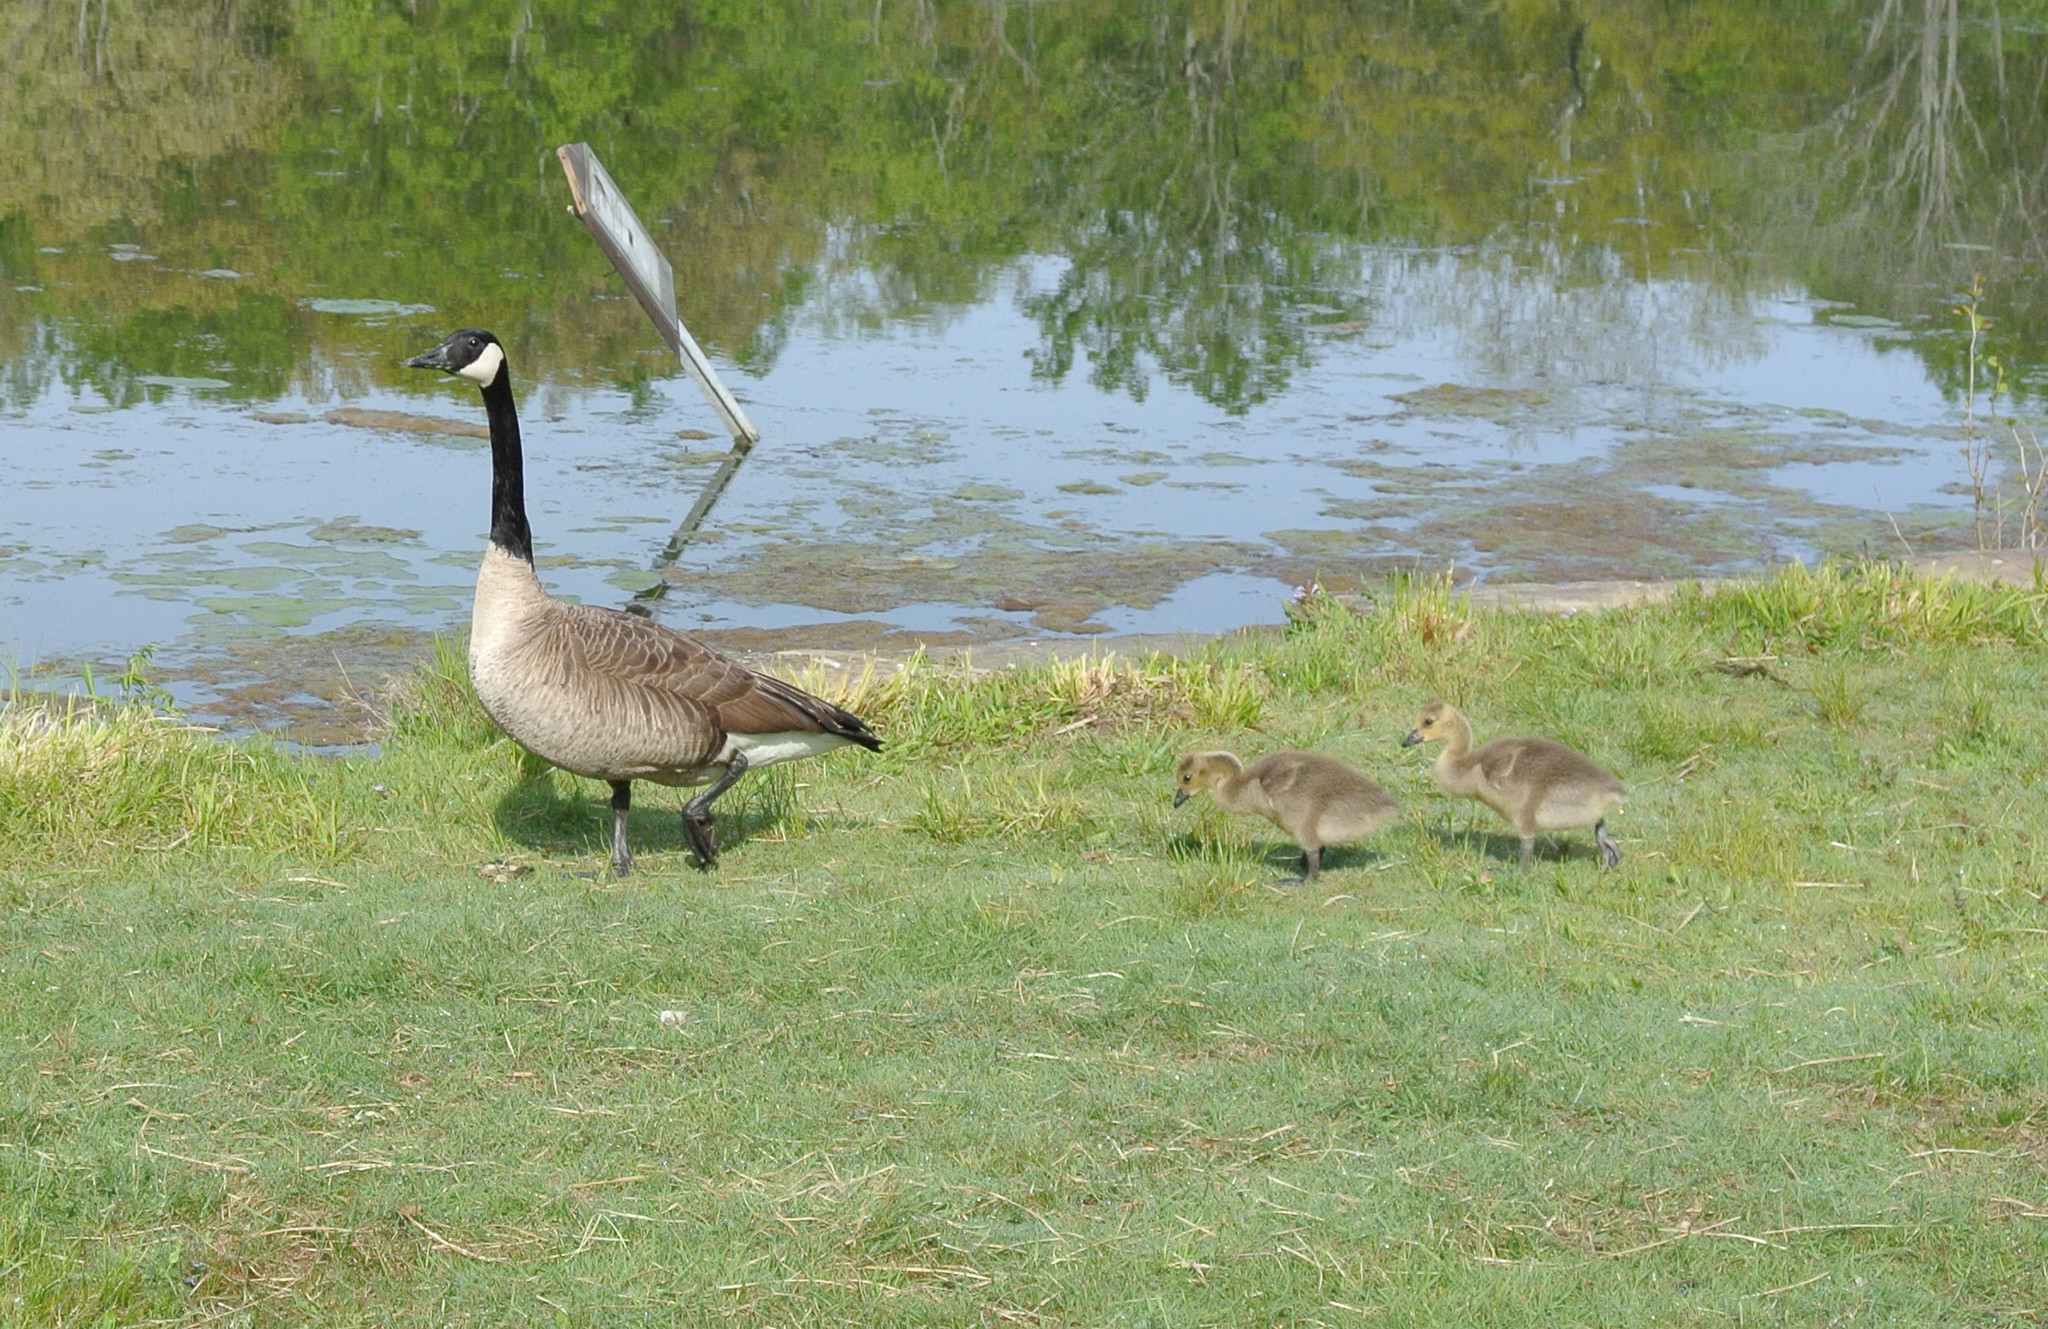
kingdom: Animalia
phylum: Chordata
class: Aves
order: Anseriformes
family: Anatidae
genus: Branta
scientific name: Branta canadensis
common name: Canada goose
